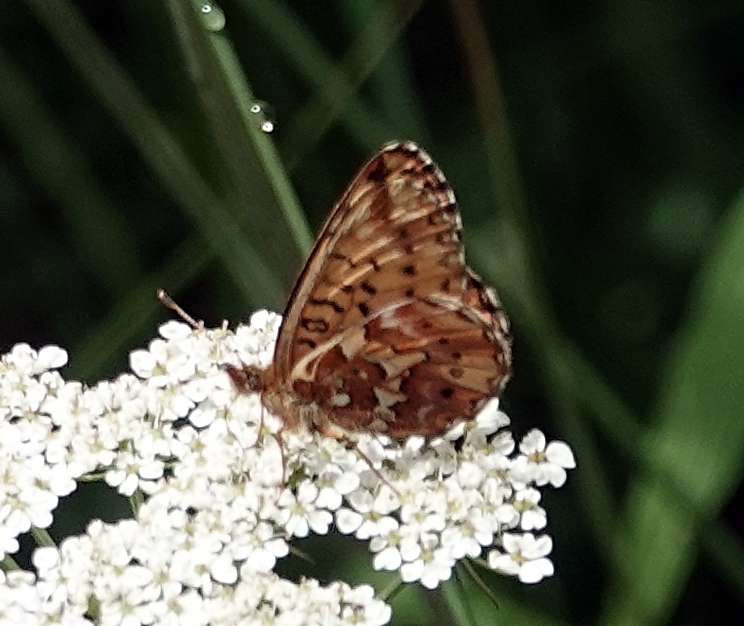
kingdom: Animalia
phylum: Arthropoda
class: Insecta
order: Lepidoptera
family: Nymphalidae
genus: Boloria
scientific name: Boloria chariclea
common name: Arctic fritillary
